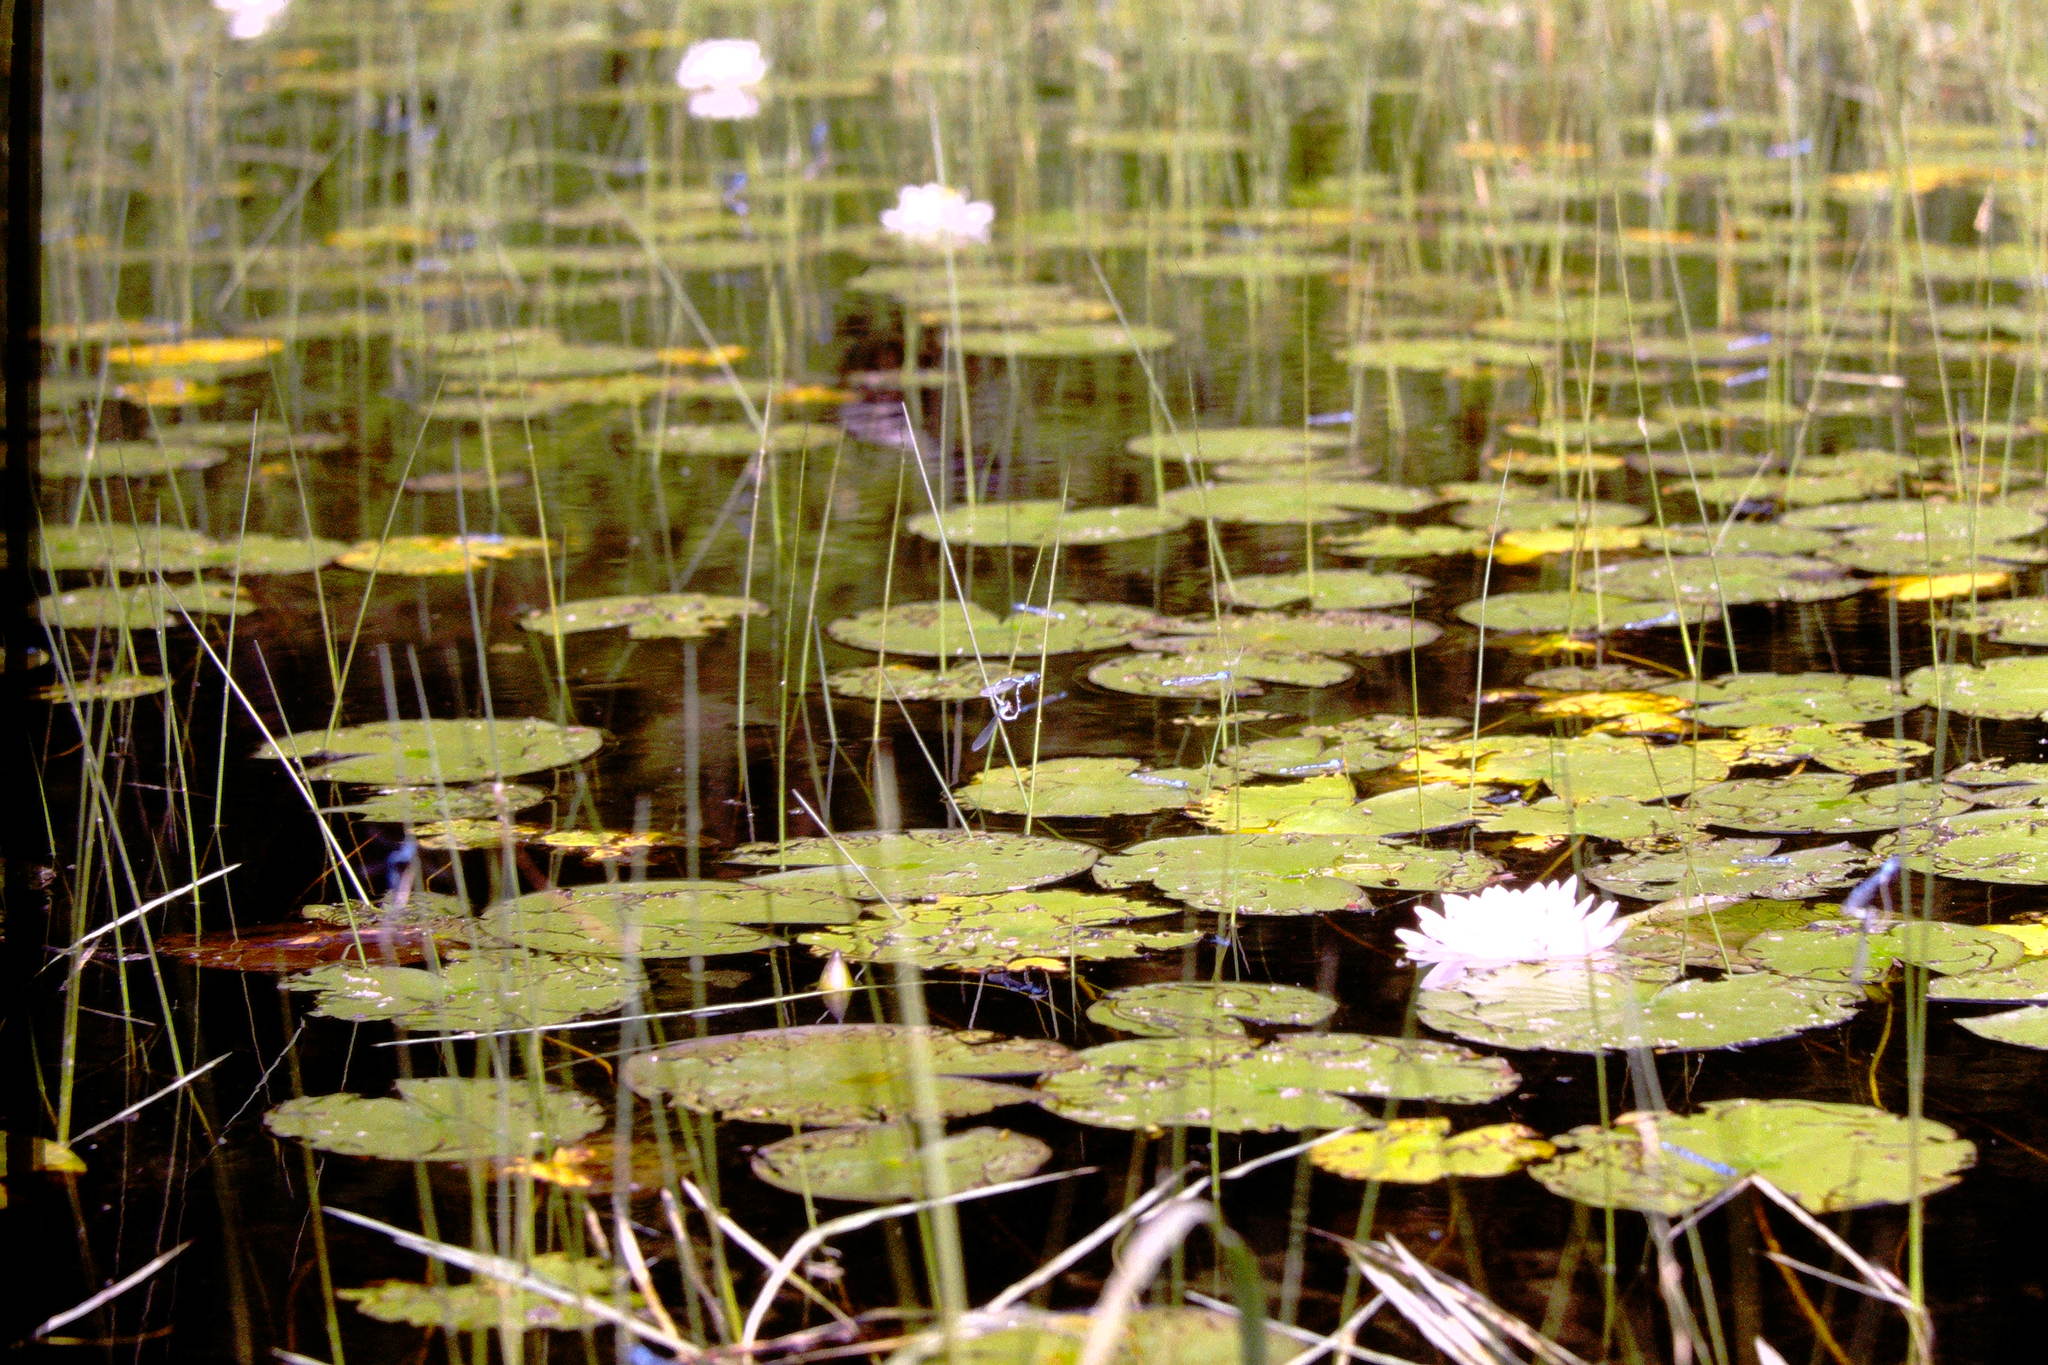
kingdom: Plantae
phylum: Tracheophyta
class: Magnoliopsida
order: Nymphaeales
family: Nymphaeaceae
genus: Nymphaea
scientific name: Nymphaea odorata
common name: Fragrant water-lily
